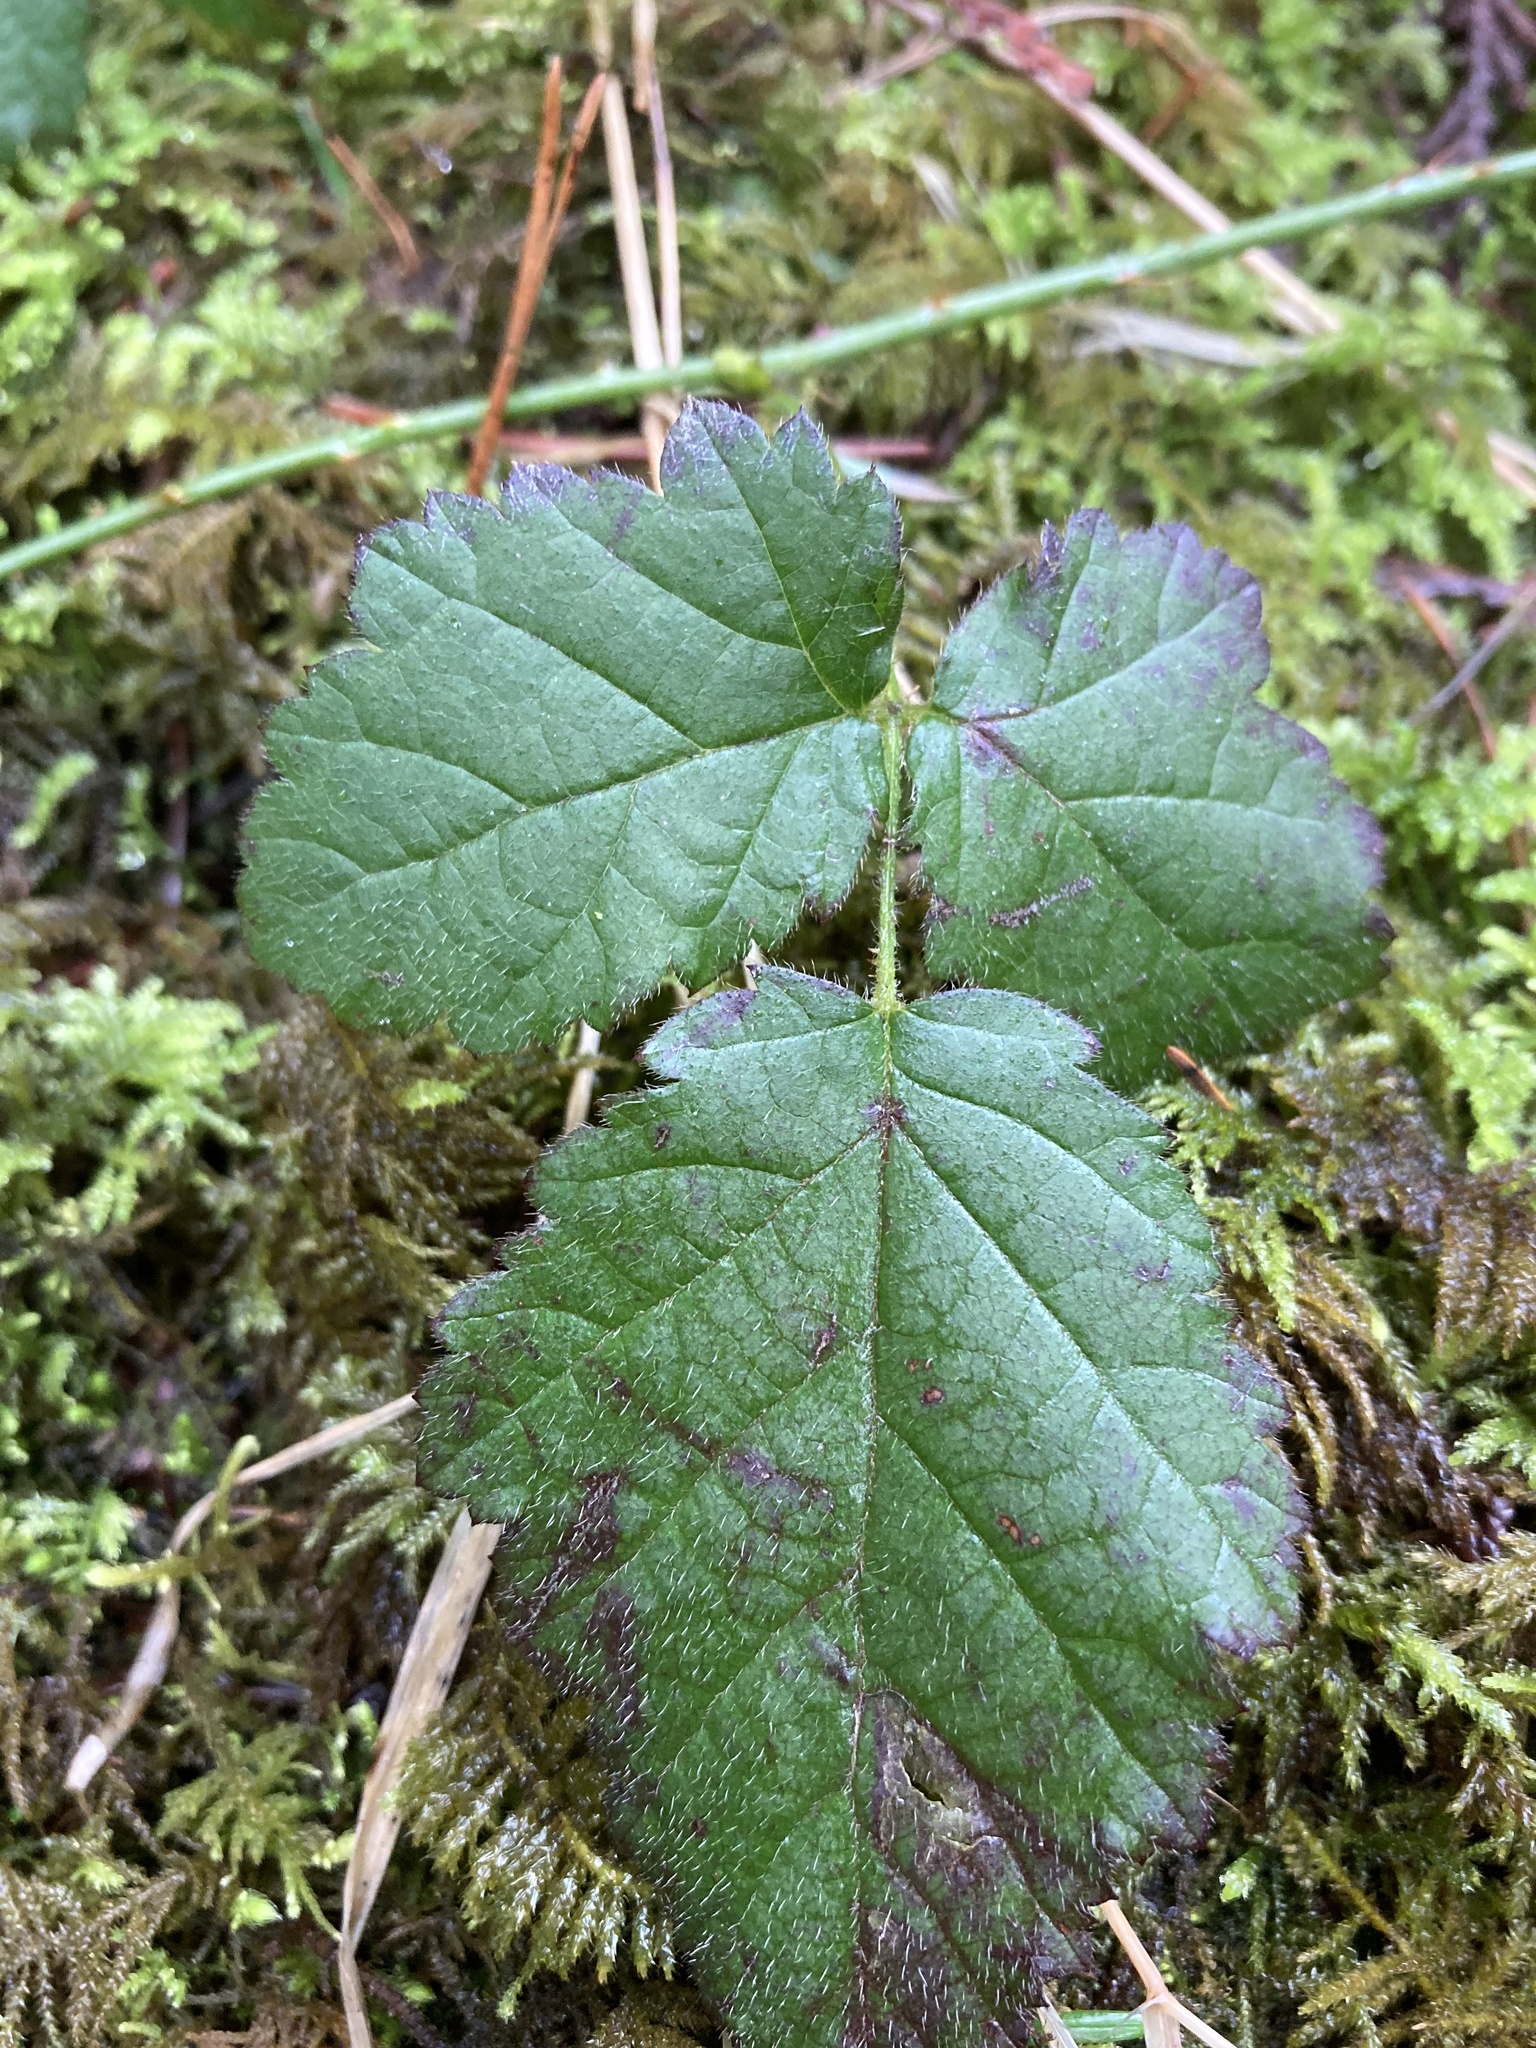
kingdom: Plantae
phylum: Tracheophyta
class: Magnoliopsida
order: Rosales
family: Rosaceae
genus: Rubus
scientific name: Rubus ursinus
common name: Pacific blackberry
